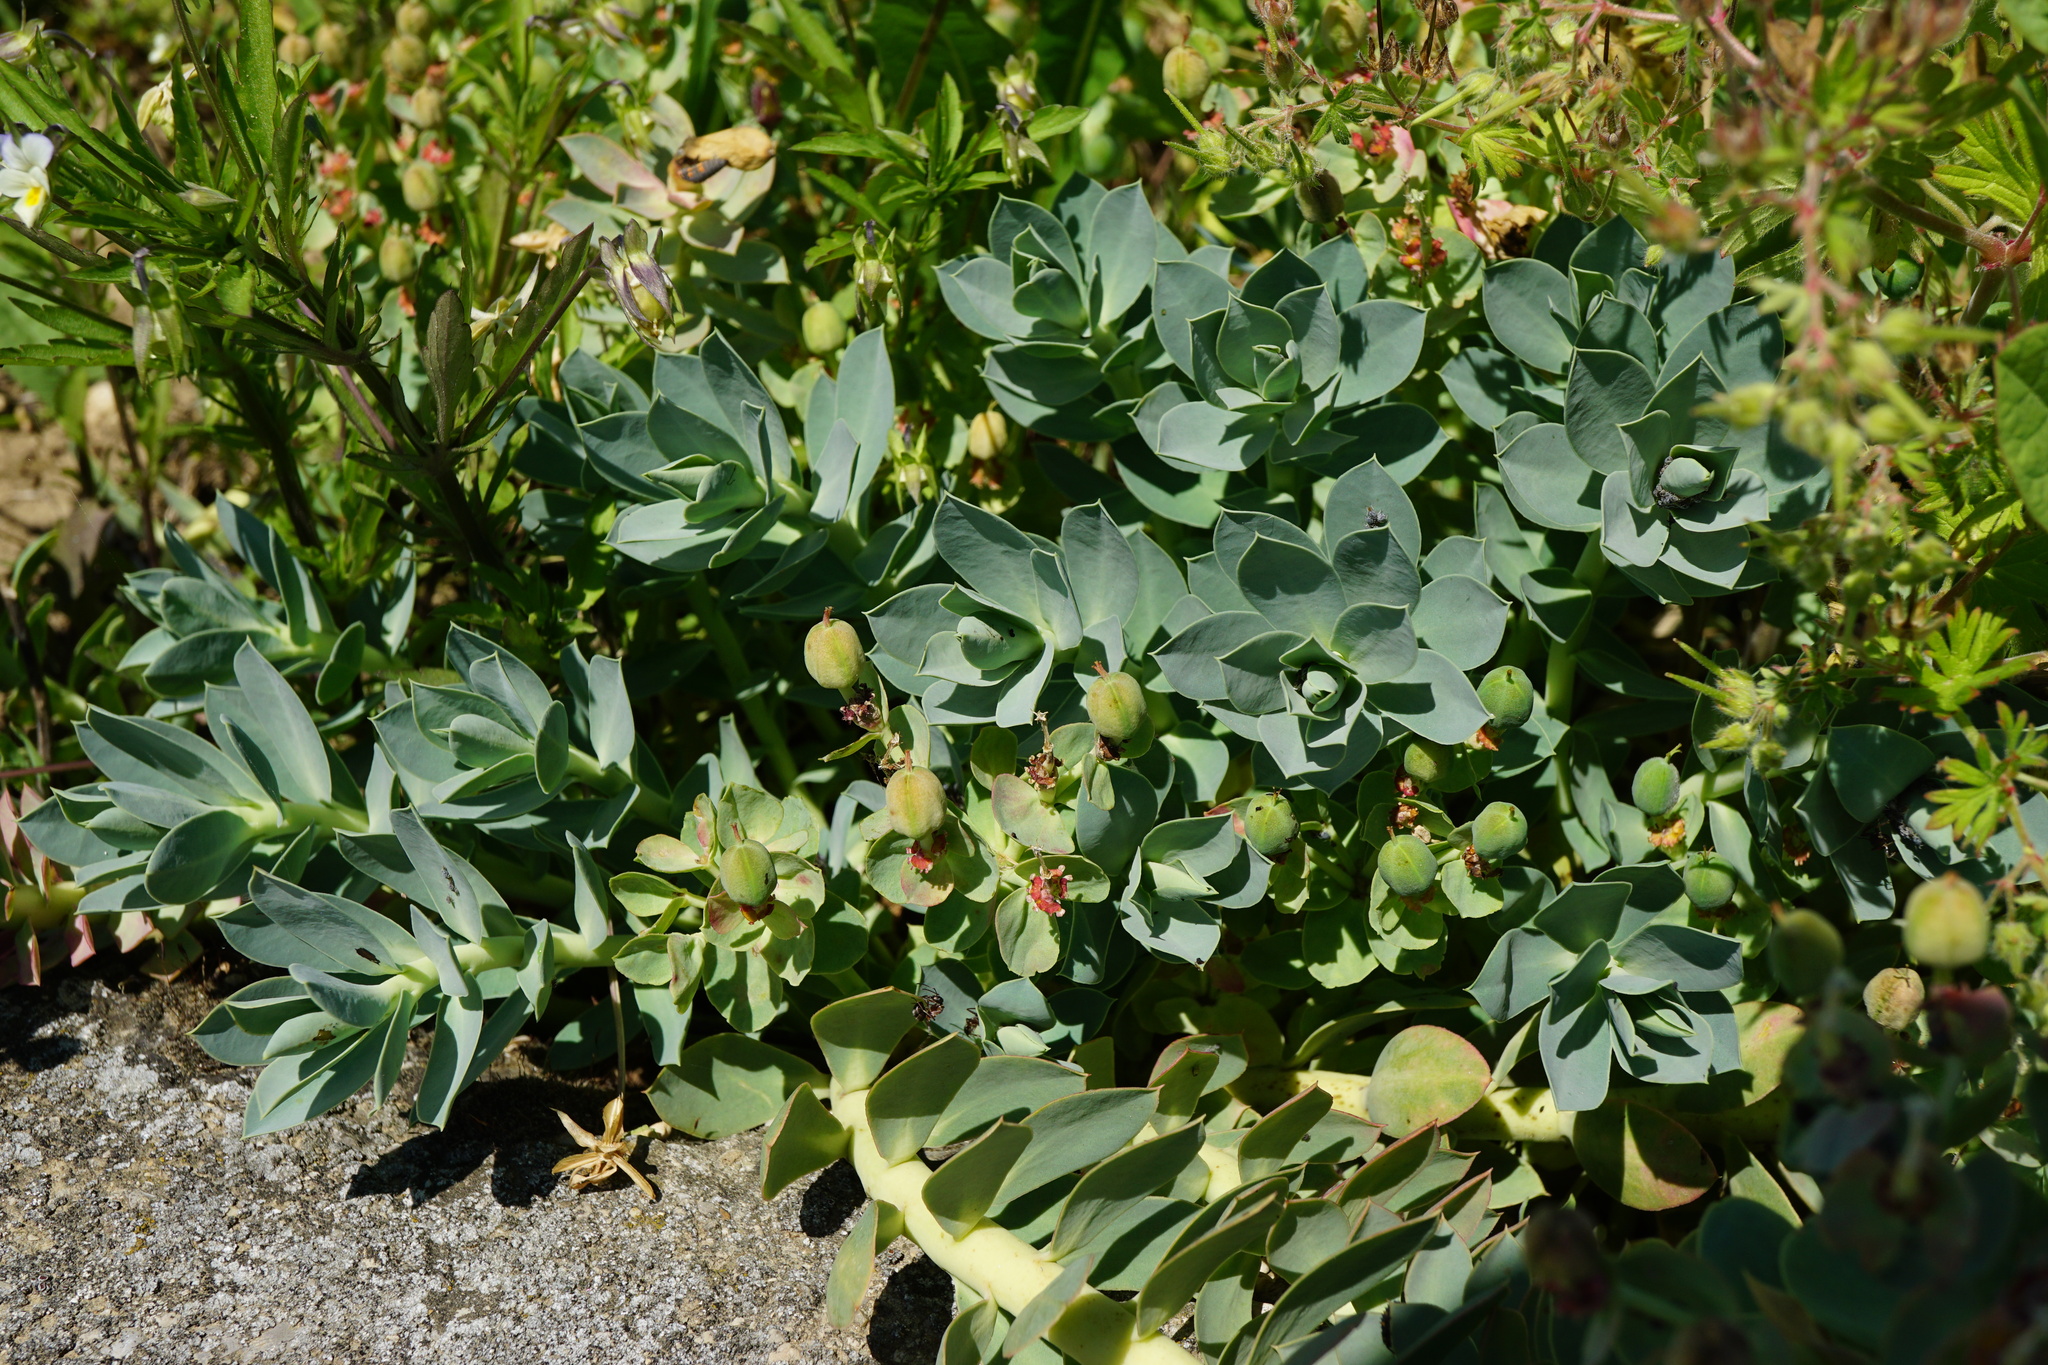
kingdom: Plantae
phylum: Tracheophyta
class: Magnoliopsida
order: Malpighiales
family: Euphorbiaceae
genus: Euphorbia
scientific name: Euphorbia myrsinites
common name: Myrtle spurge
